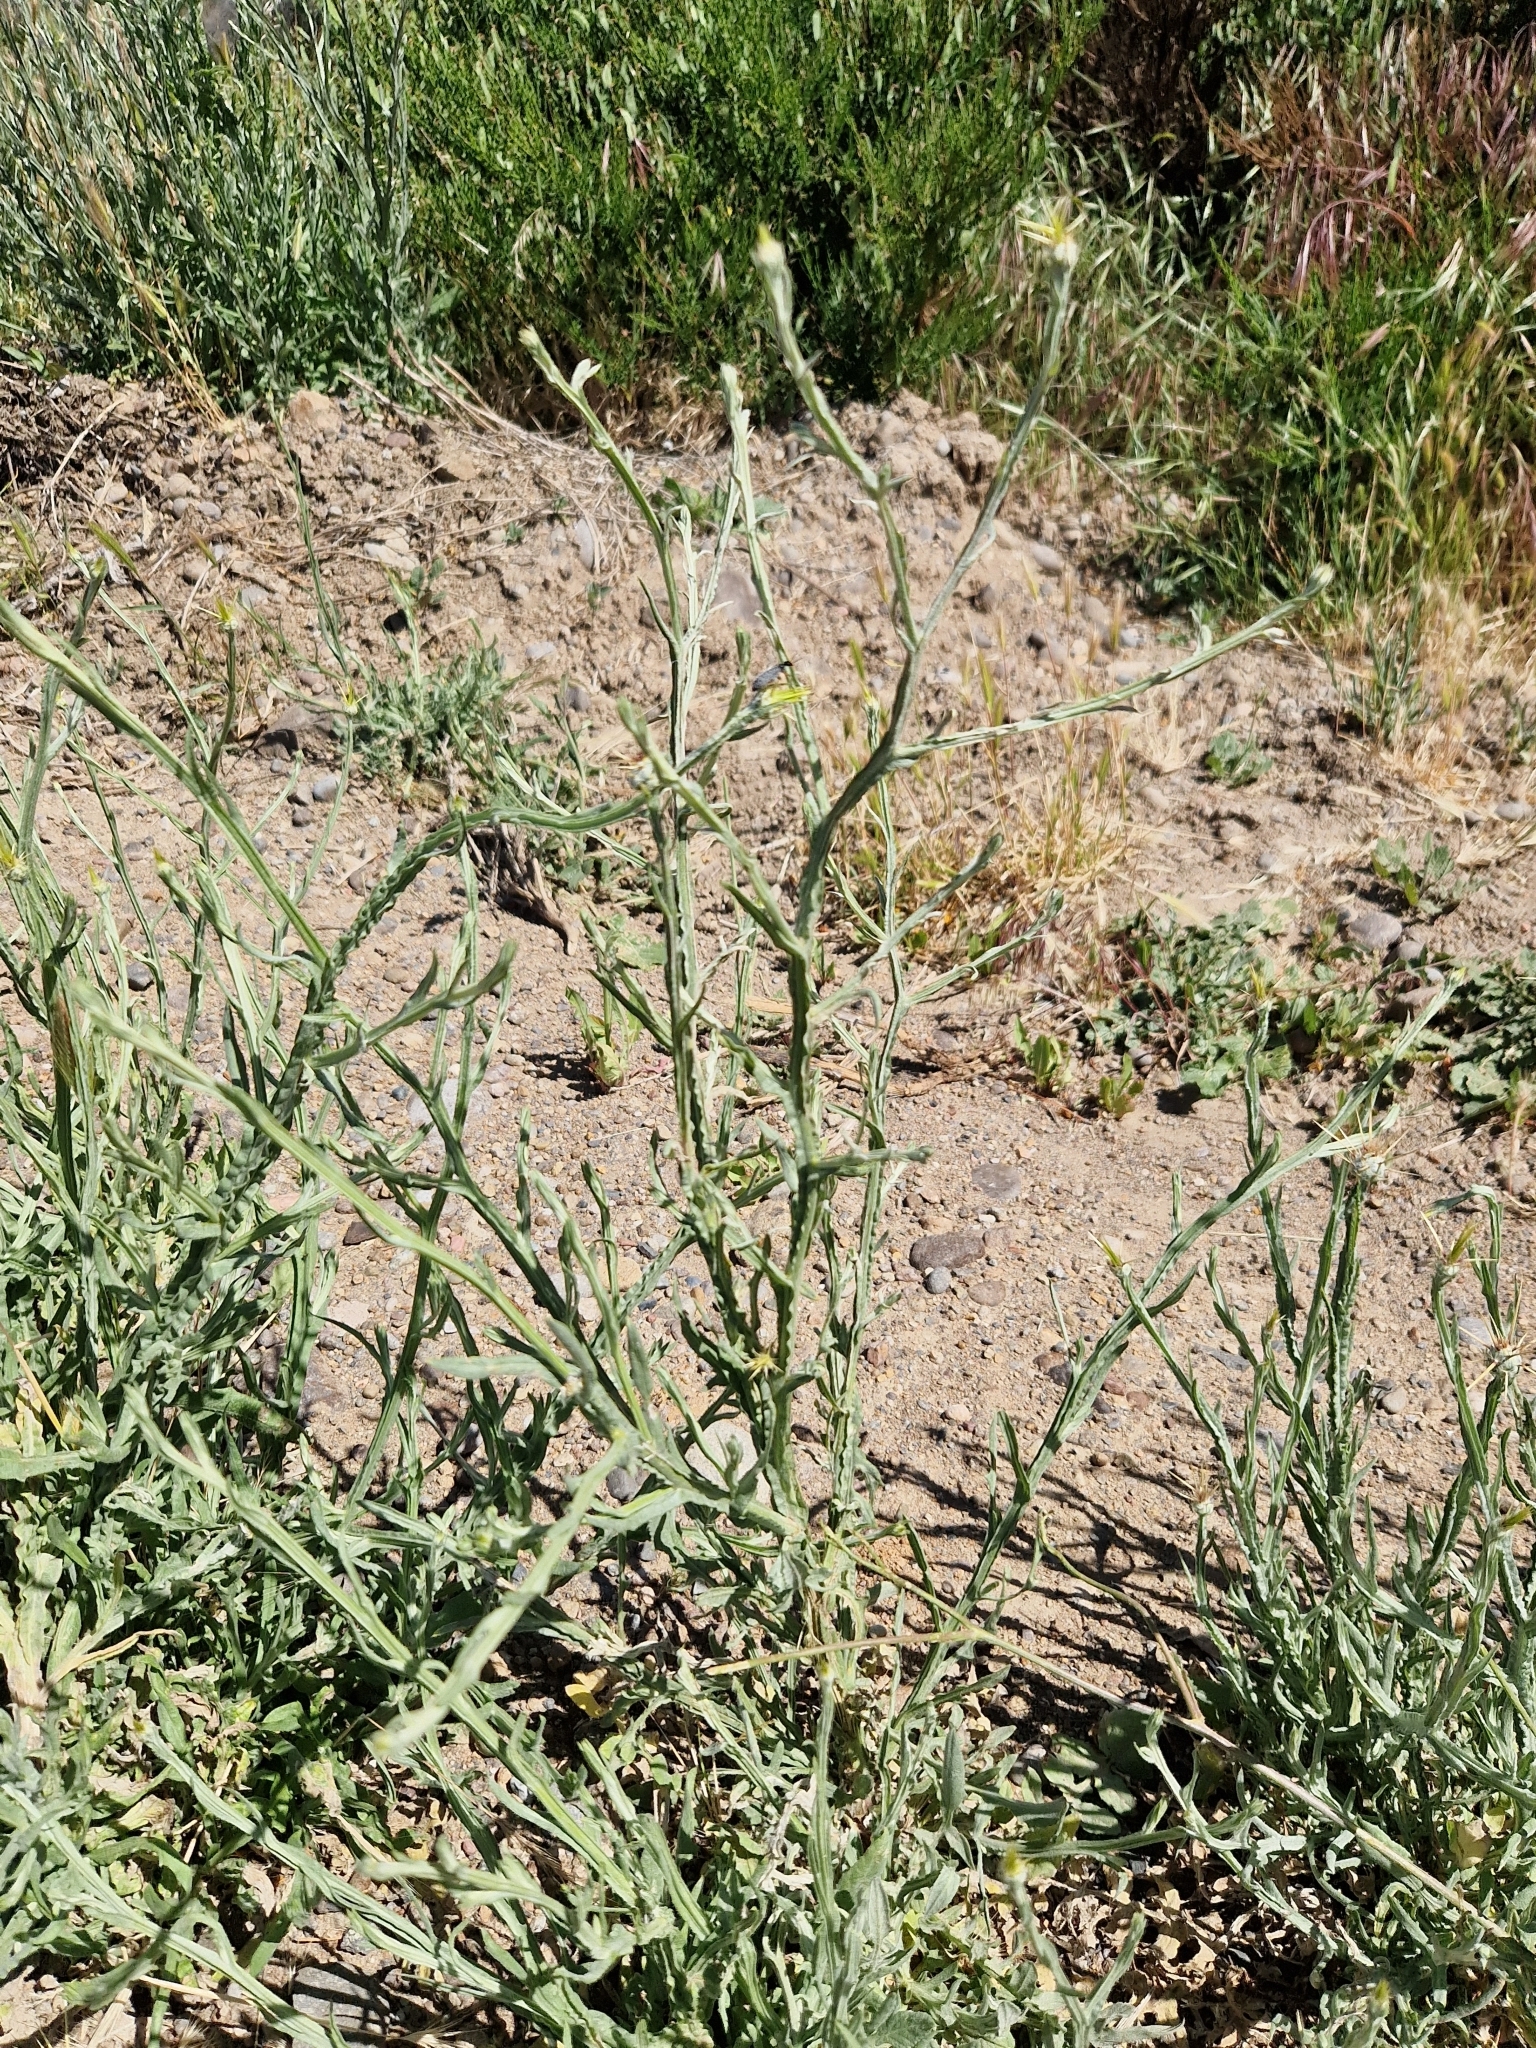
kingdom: Plantae
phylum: Tracheophyta
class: Magnoliopsida
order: Asterales
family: Asteraceae
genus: Centaurea
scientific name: Centaurea solstitialis
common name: Yellow star-thistle
